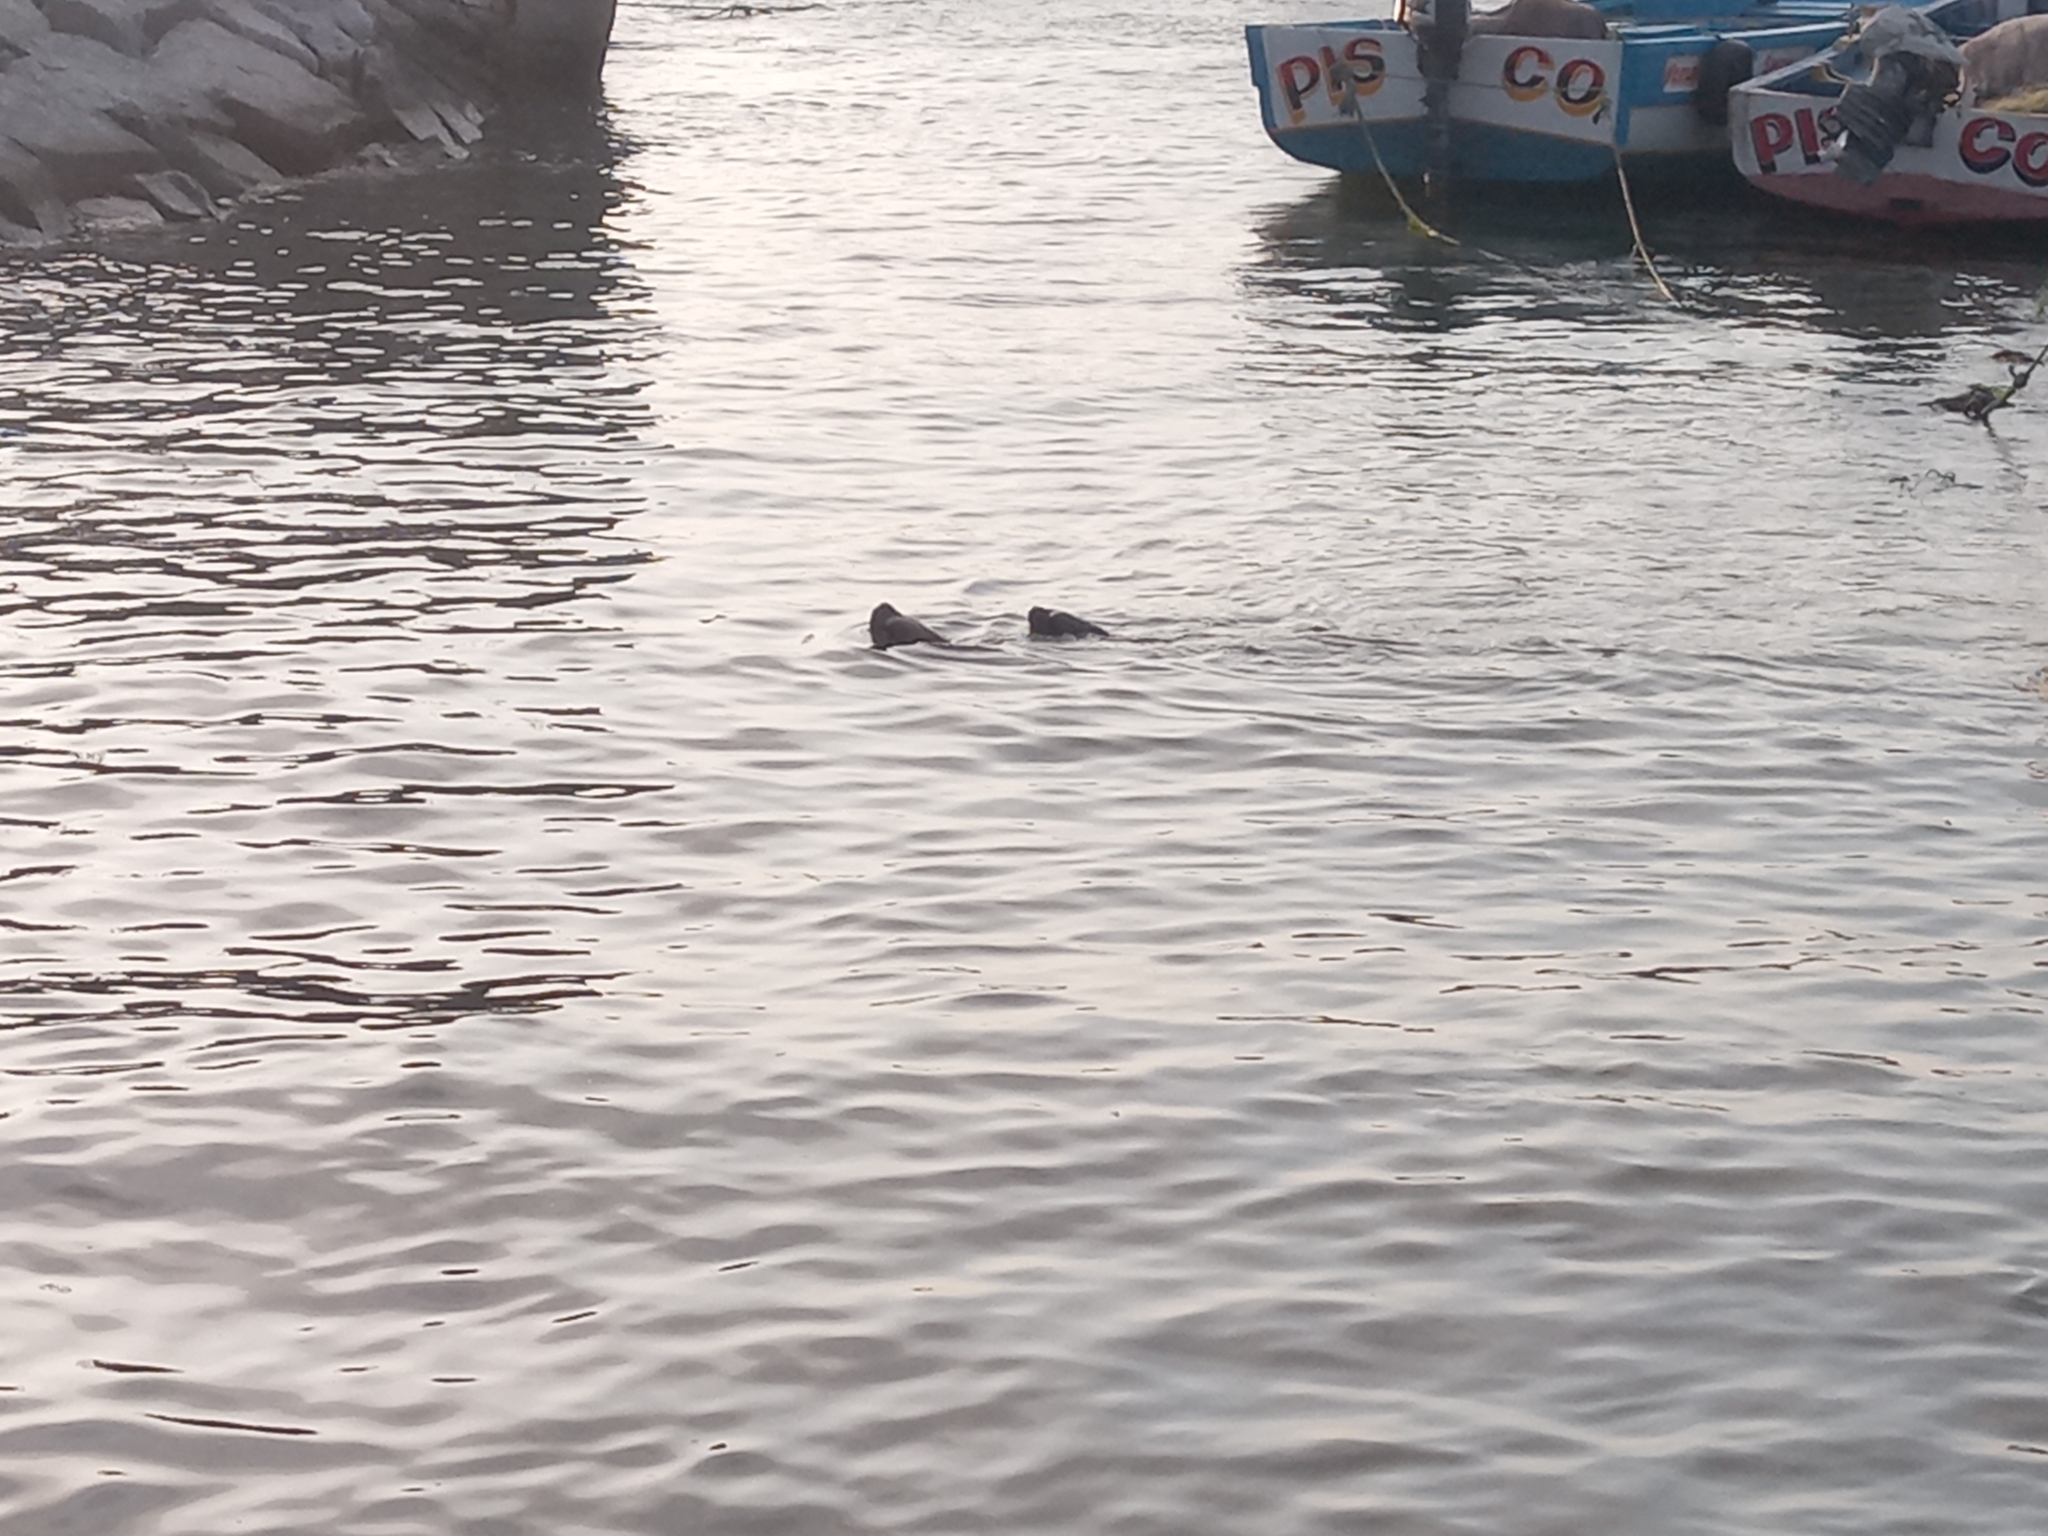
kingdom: Animalia
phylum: Chordata
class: Mammalia
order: Carnivora
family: Otariidae
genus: Otaria
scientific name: Otaria byronia
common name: South american sea lion
